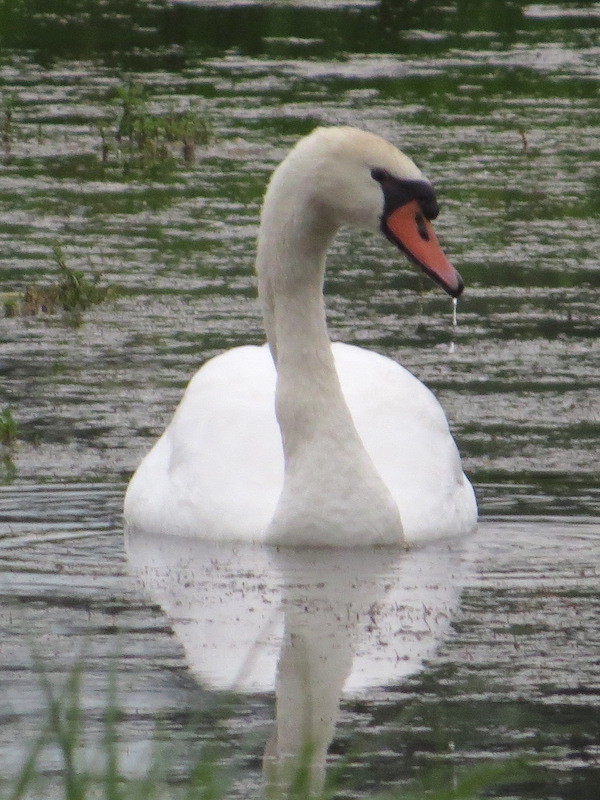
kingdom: Animalia
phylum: Chordata
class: Aves
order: Anseriformes
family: Anatidae
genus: Cygnus
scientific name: Cygnus olor
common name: Mute swan
